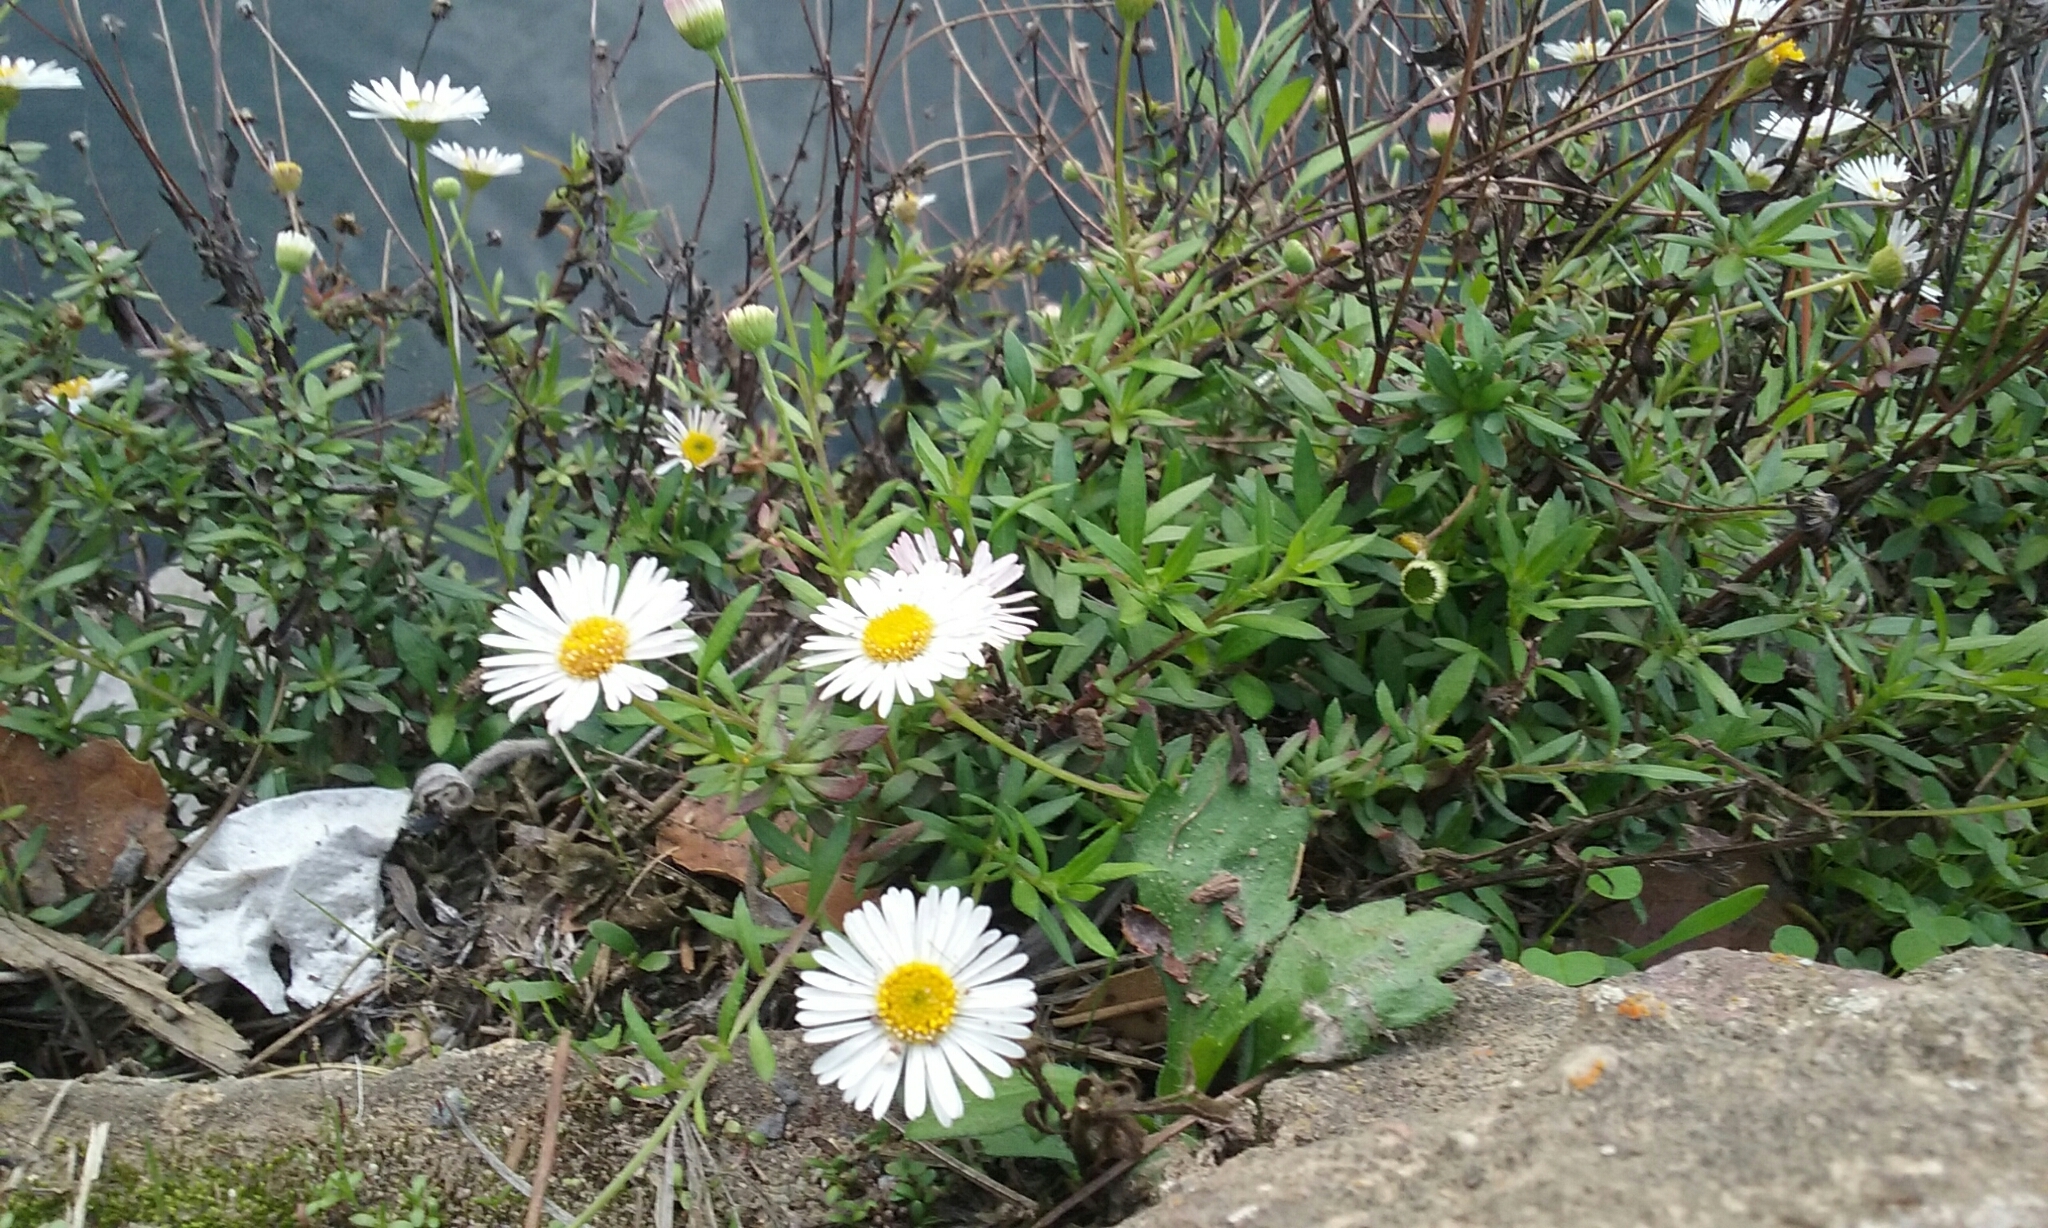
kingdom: Plantae
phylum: Tracheophyta
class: Magnoliopsida
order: Asterales
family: Asteraceae
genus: Erigeron
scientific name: Erigeron karvinskianus
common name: Mexican fleabane
